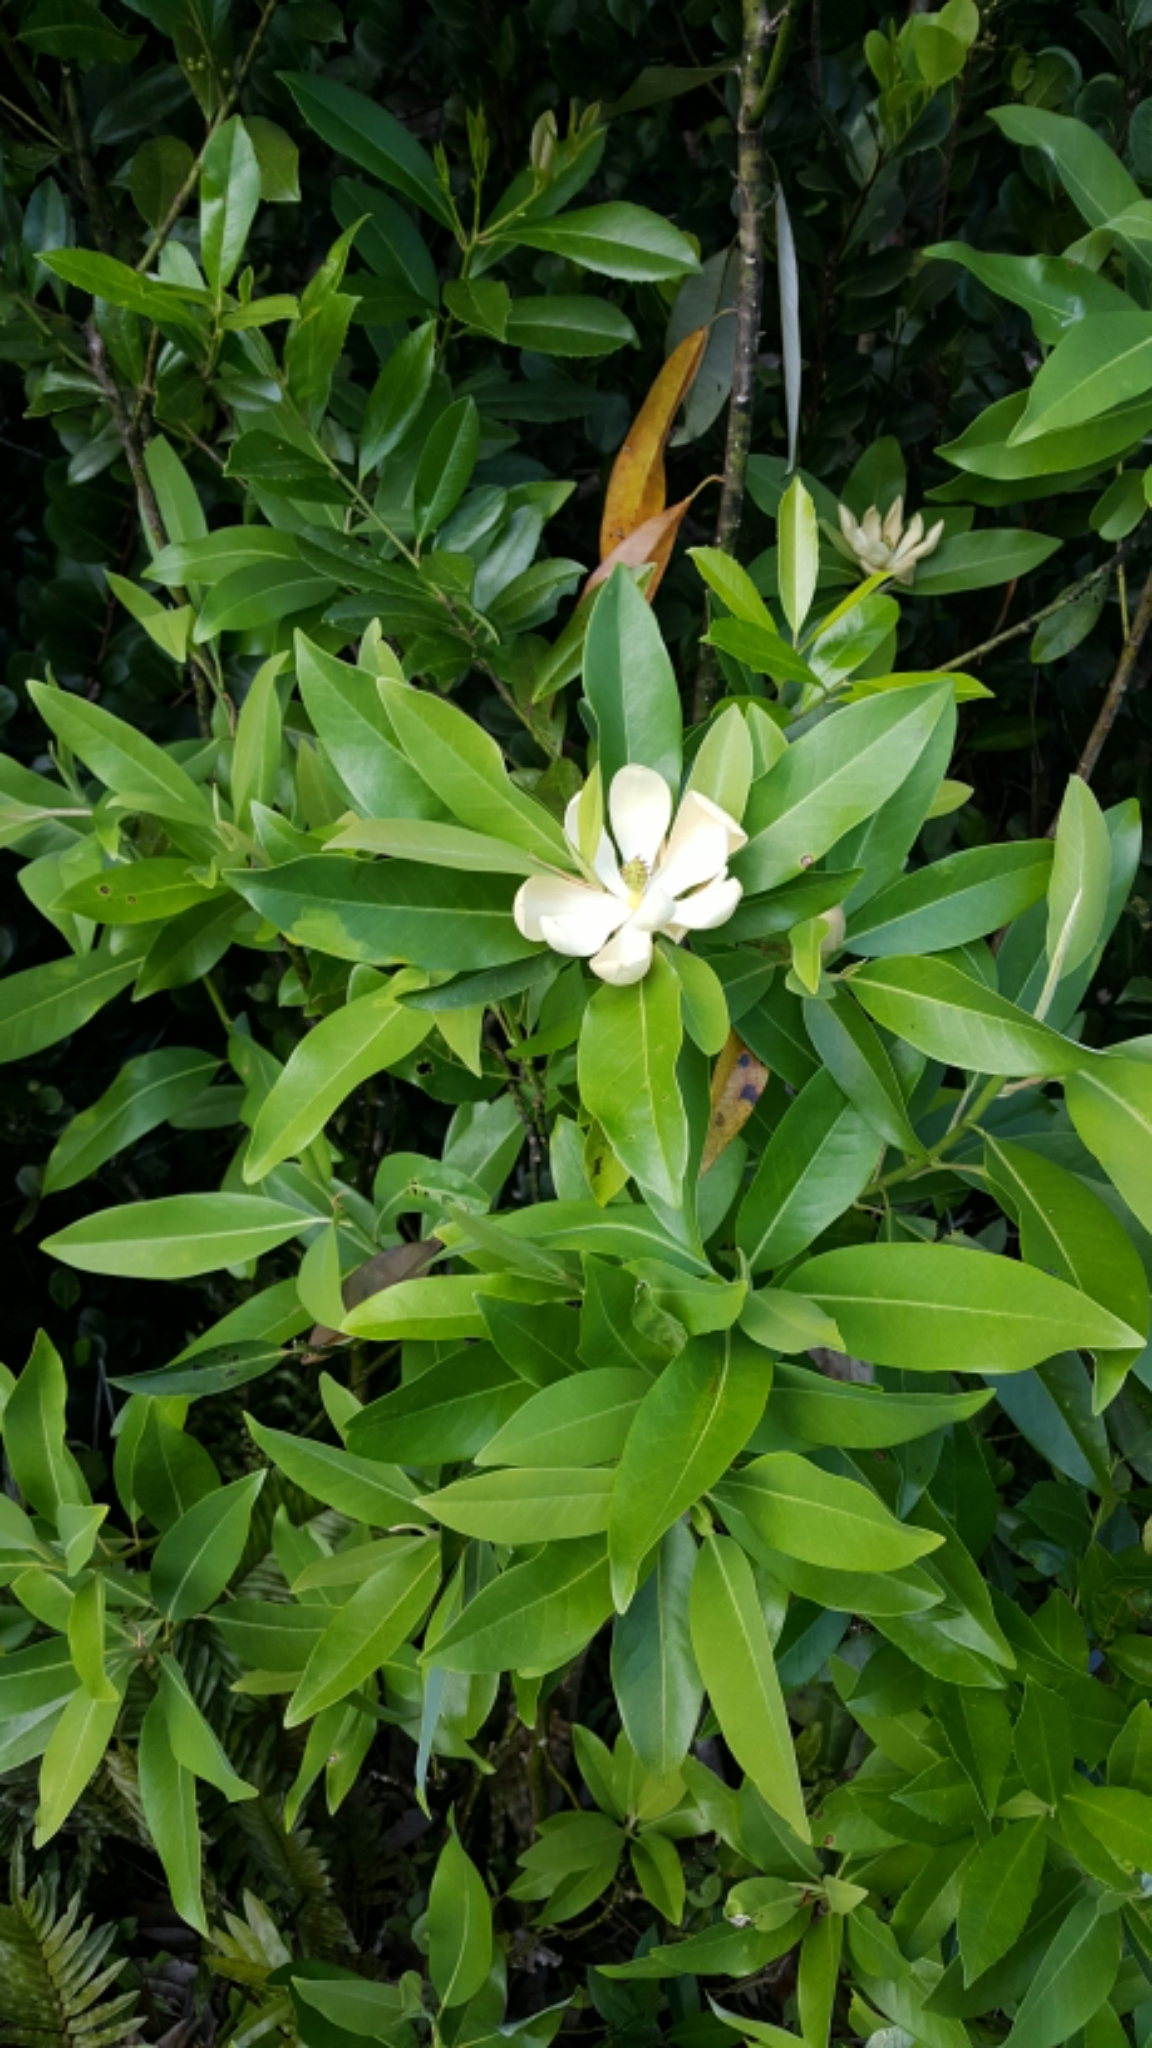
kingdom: Plantae
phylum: Tracheophyta
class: Magnoliopsida
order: Magnoliales
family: Magnoliaceae
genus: Magnolia
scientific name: Magnolia virginiana
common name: Swamp bay
